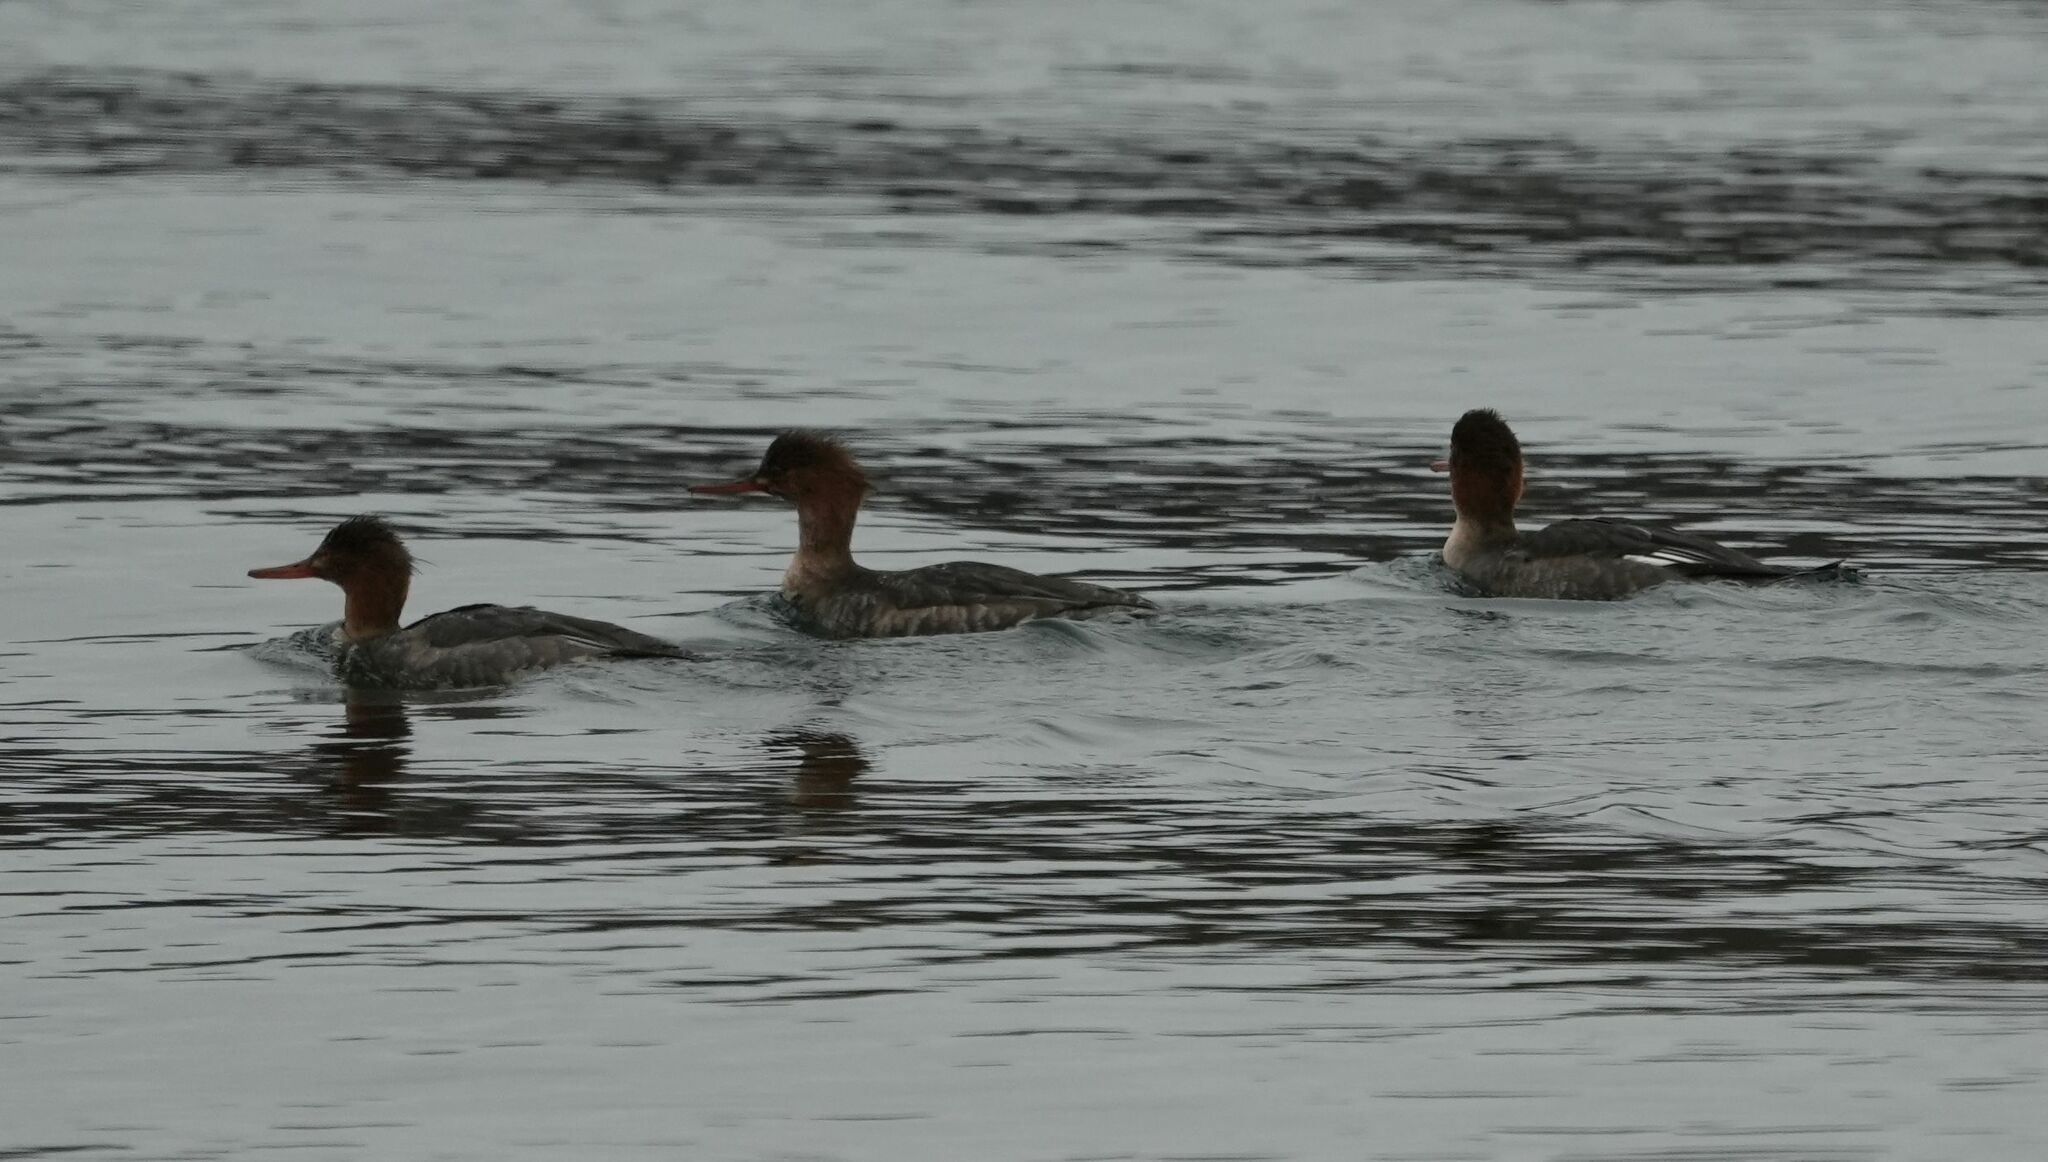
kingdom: Animalia
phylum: Chordata
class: Aves
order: Anseriformes
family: Anatidae
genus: Mergus
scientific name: Mergus serrator
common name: Red-breasted merganser
